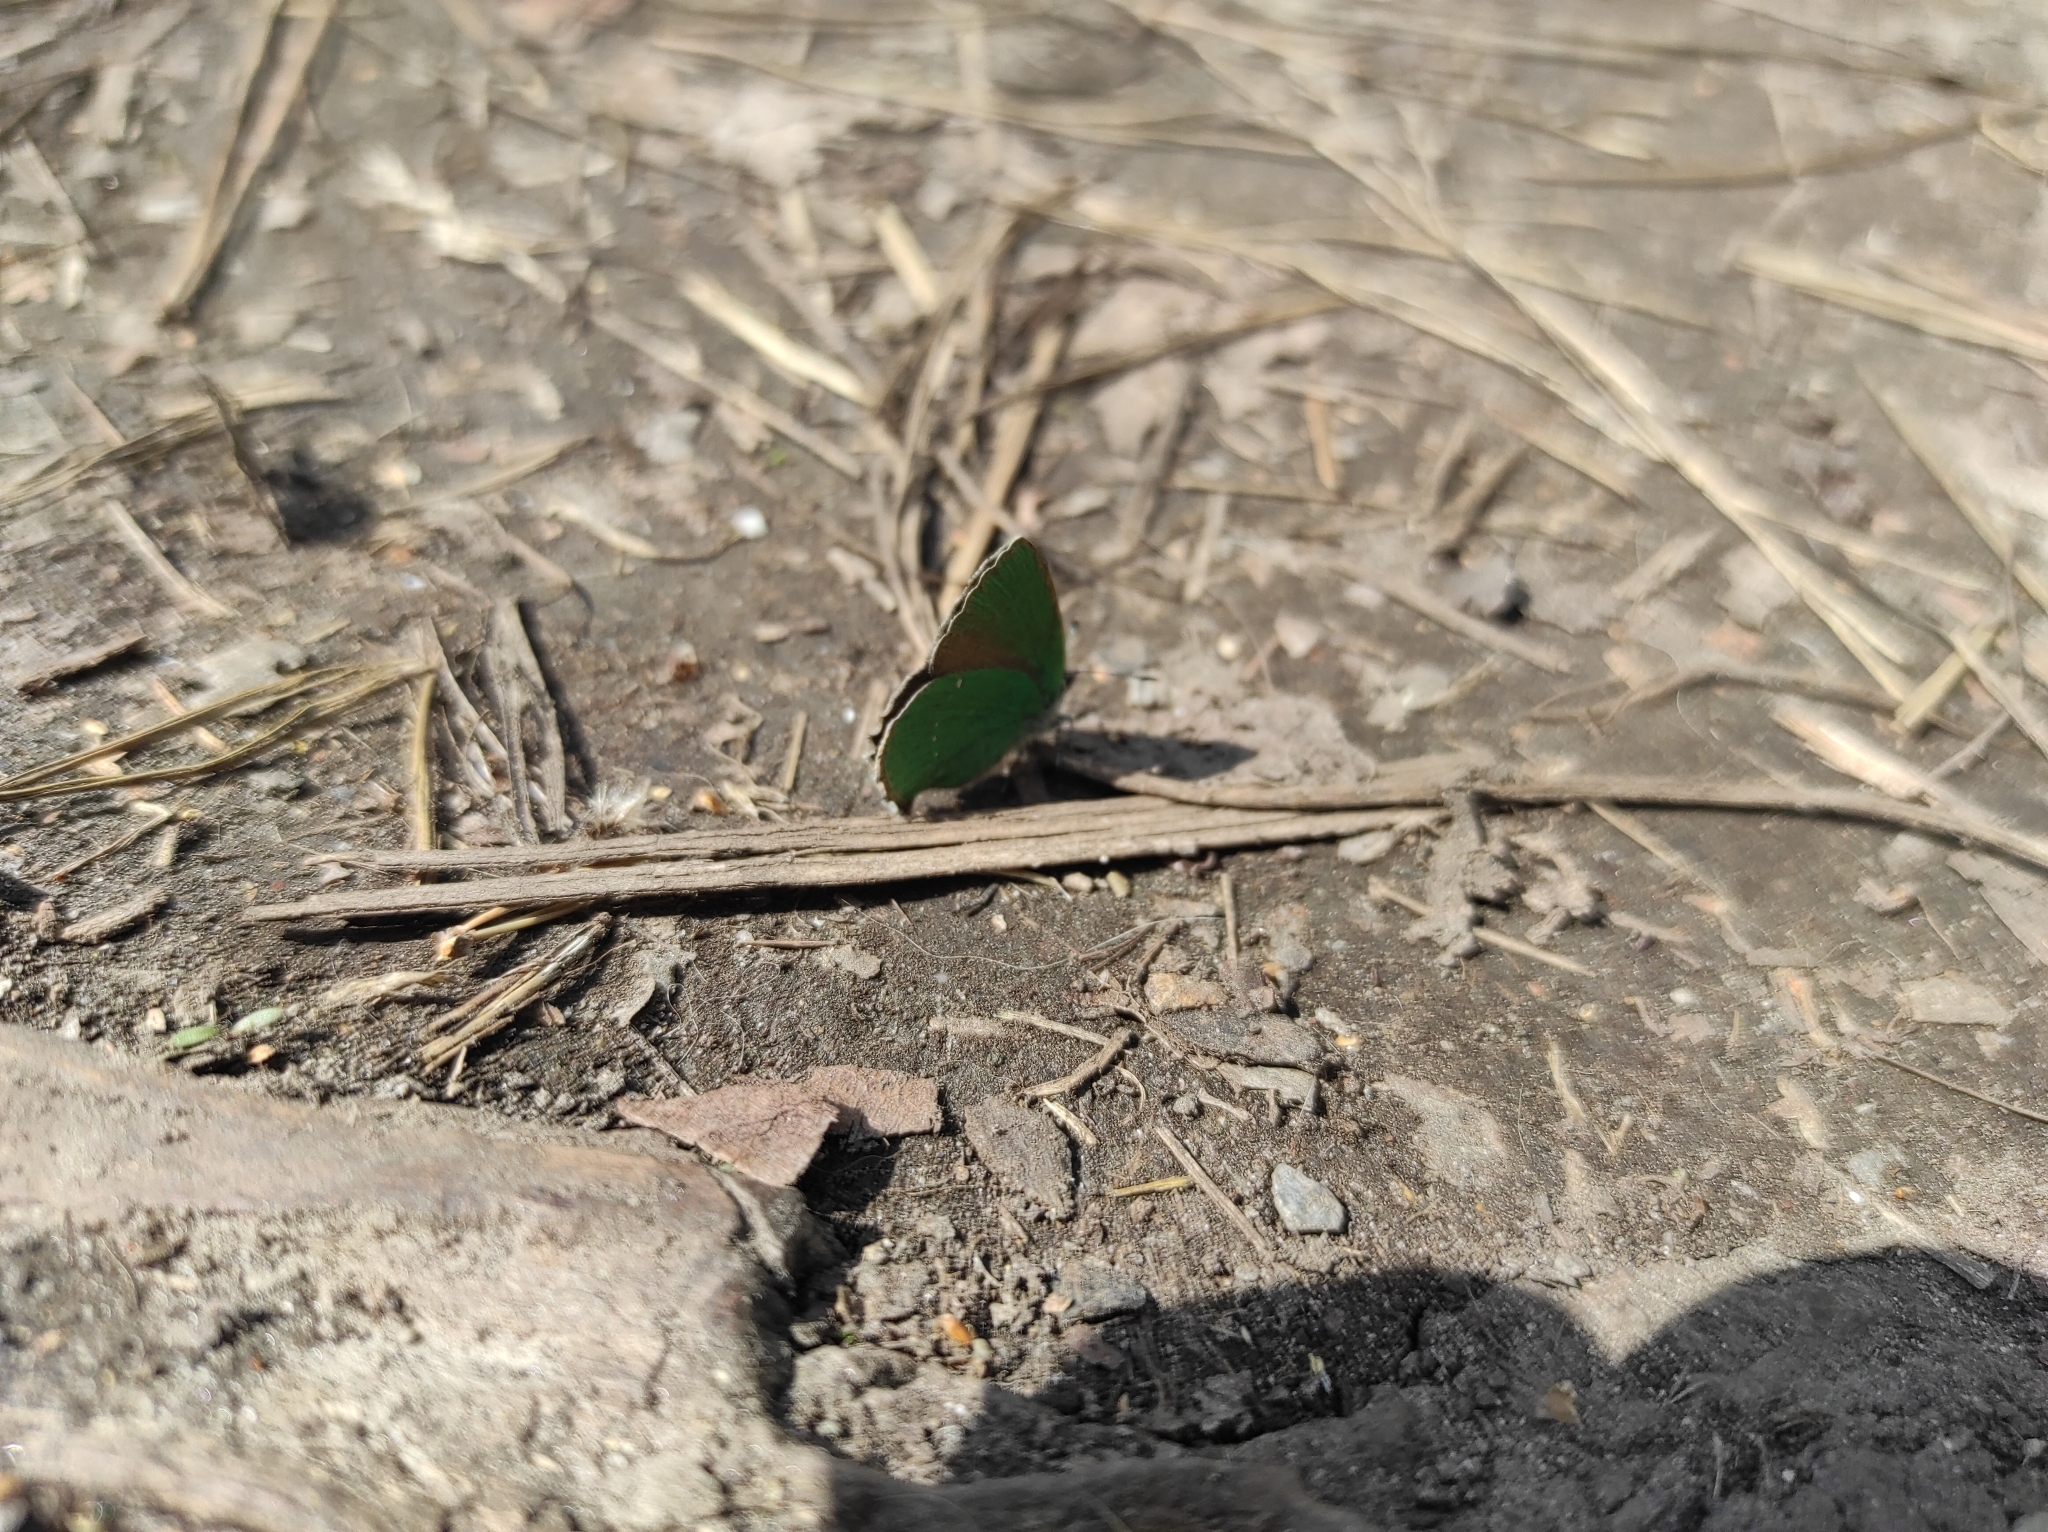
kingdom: Animalia
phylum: Arthropoda
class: Insecta
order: Lepidoptera
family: Lycaenidae
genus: Callophrys
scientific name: Callophrys rubi
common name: Green hairstreak
